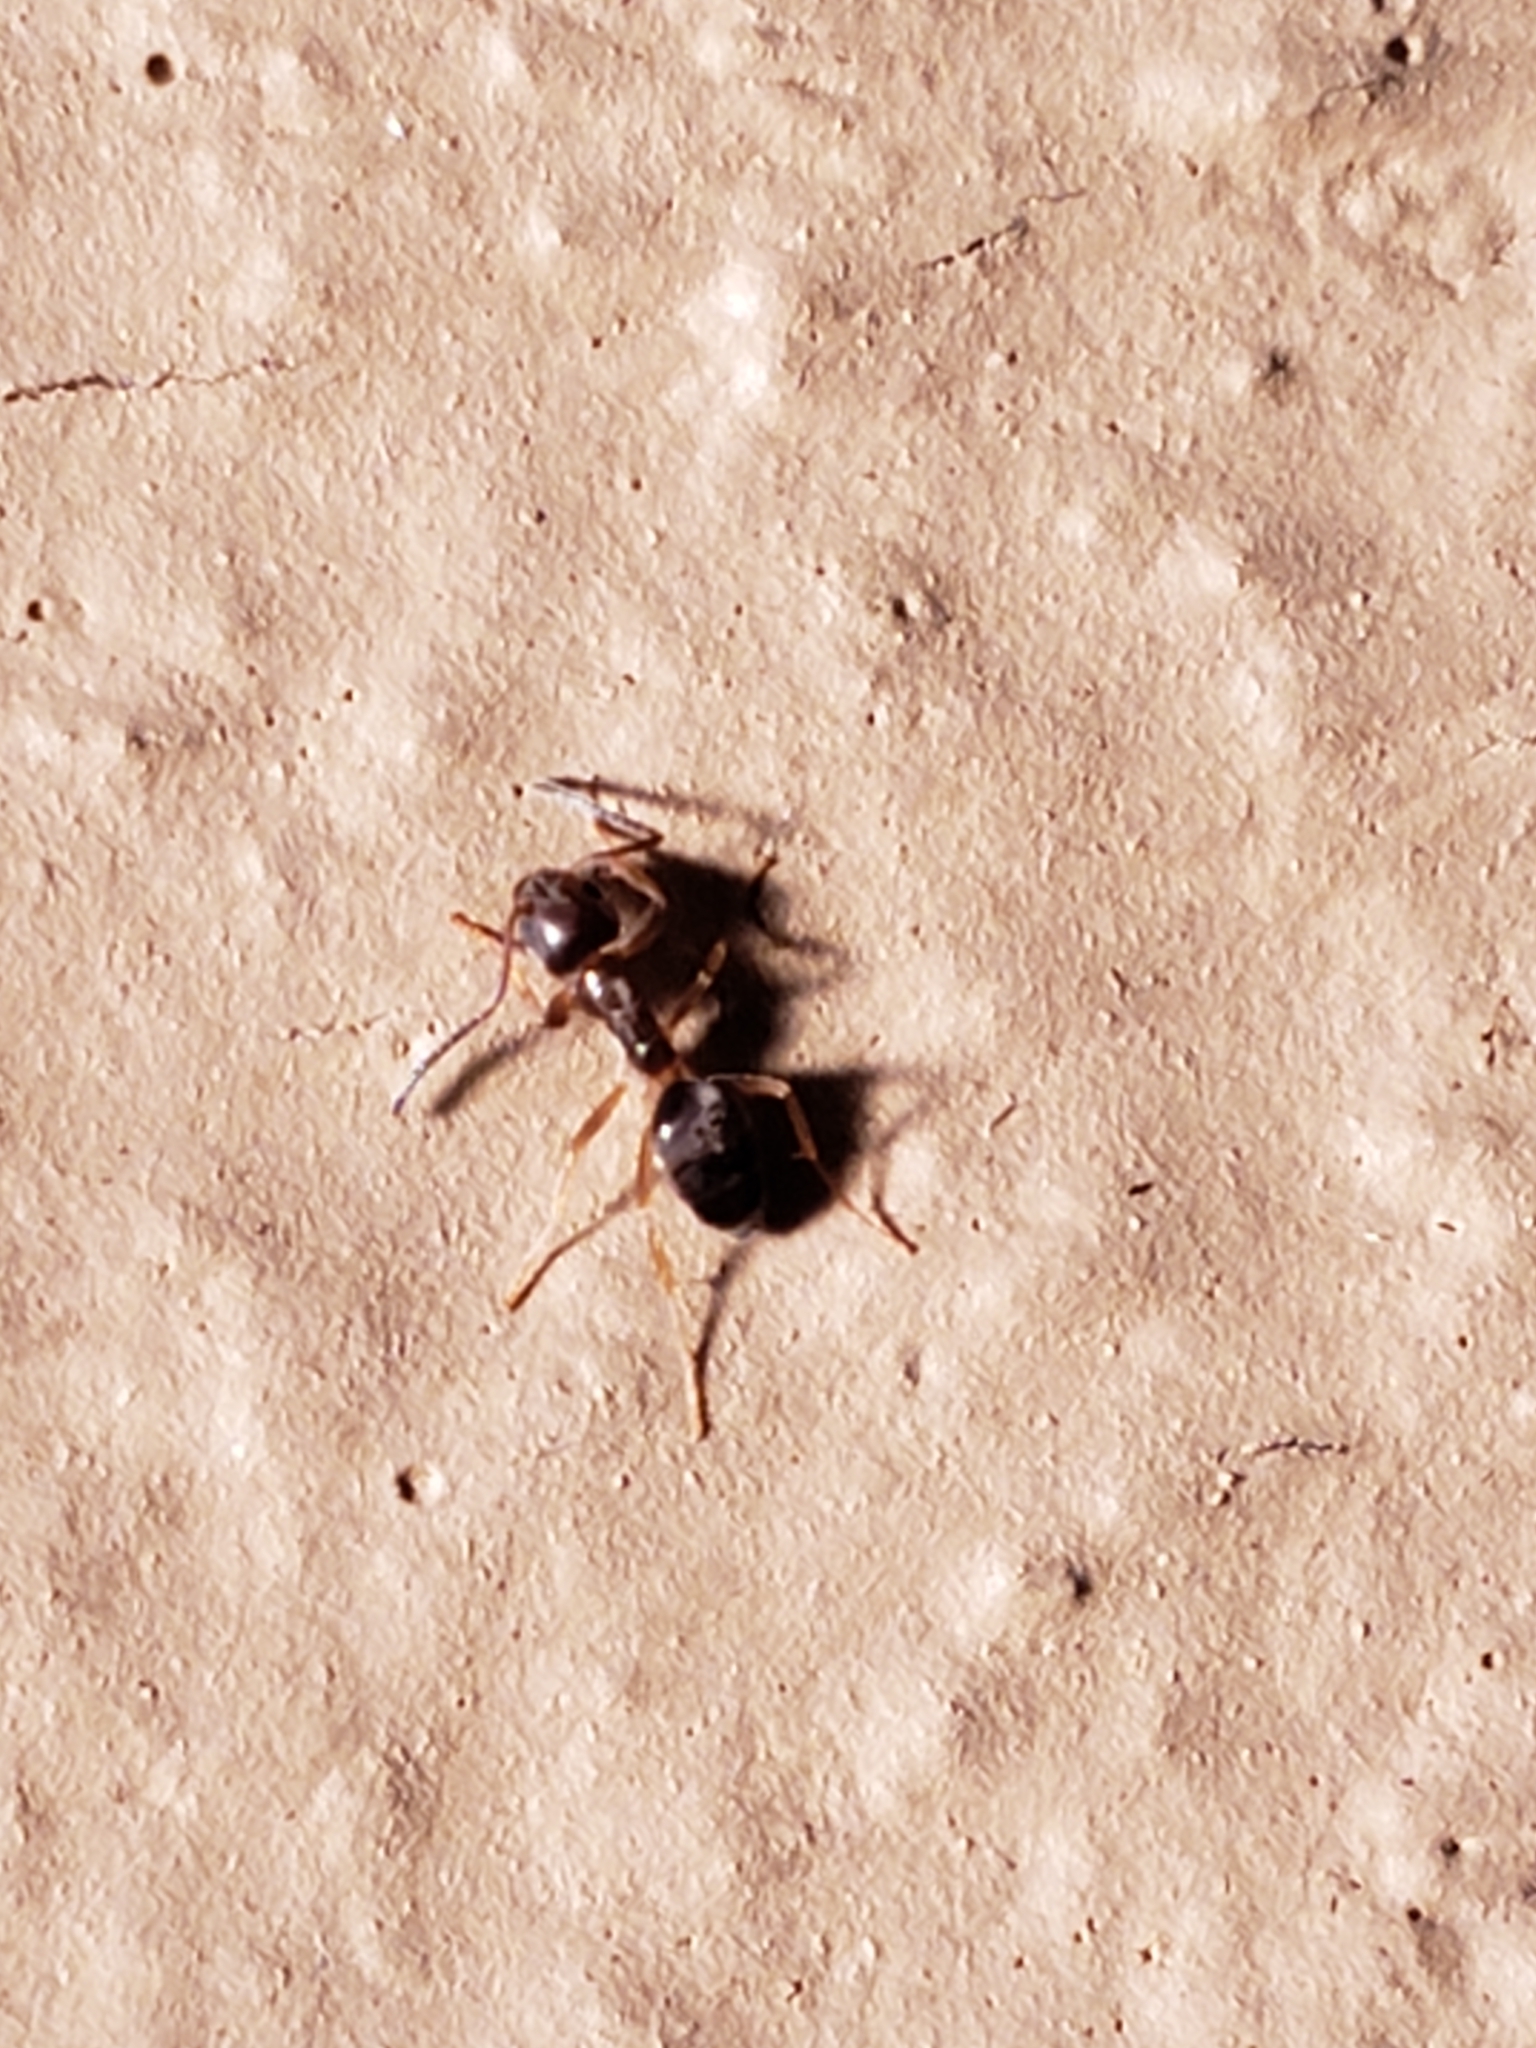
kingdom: Animalia
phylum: Arthropoda
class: Insecta
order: Hymenoptera
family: Formicidae
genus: Tapinoma
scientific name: Tapinoma sessile
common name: Odorous house ant
